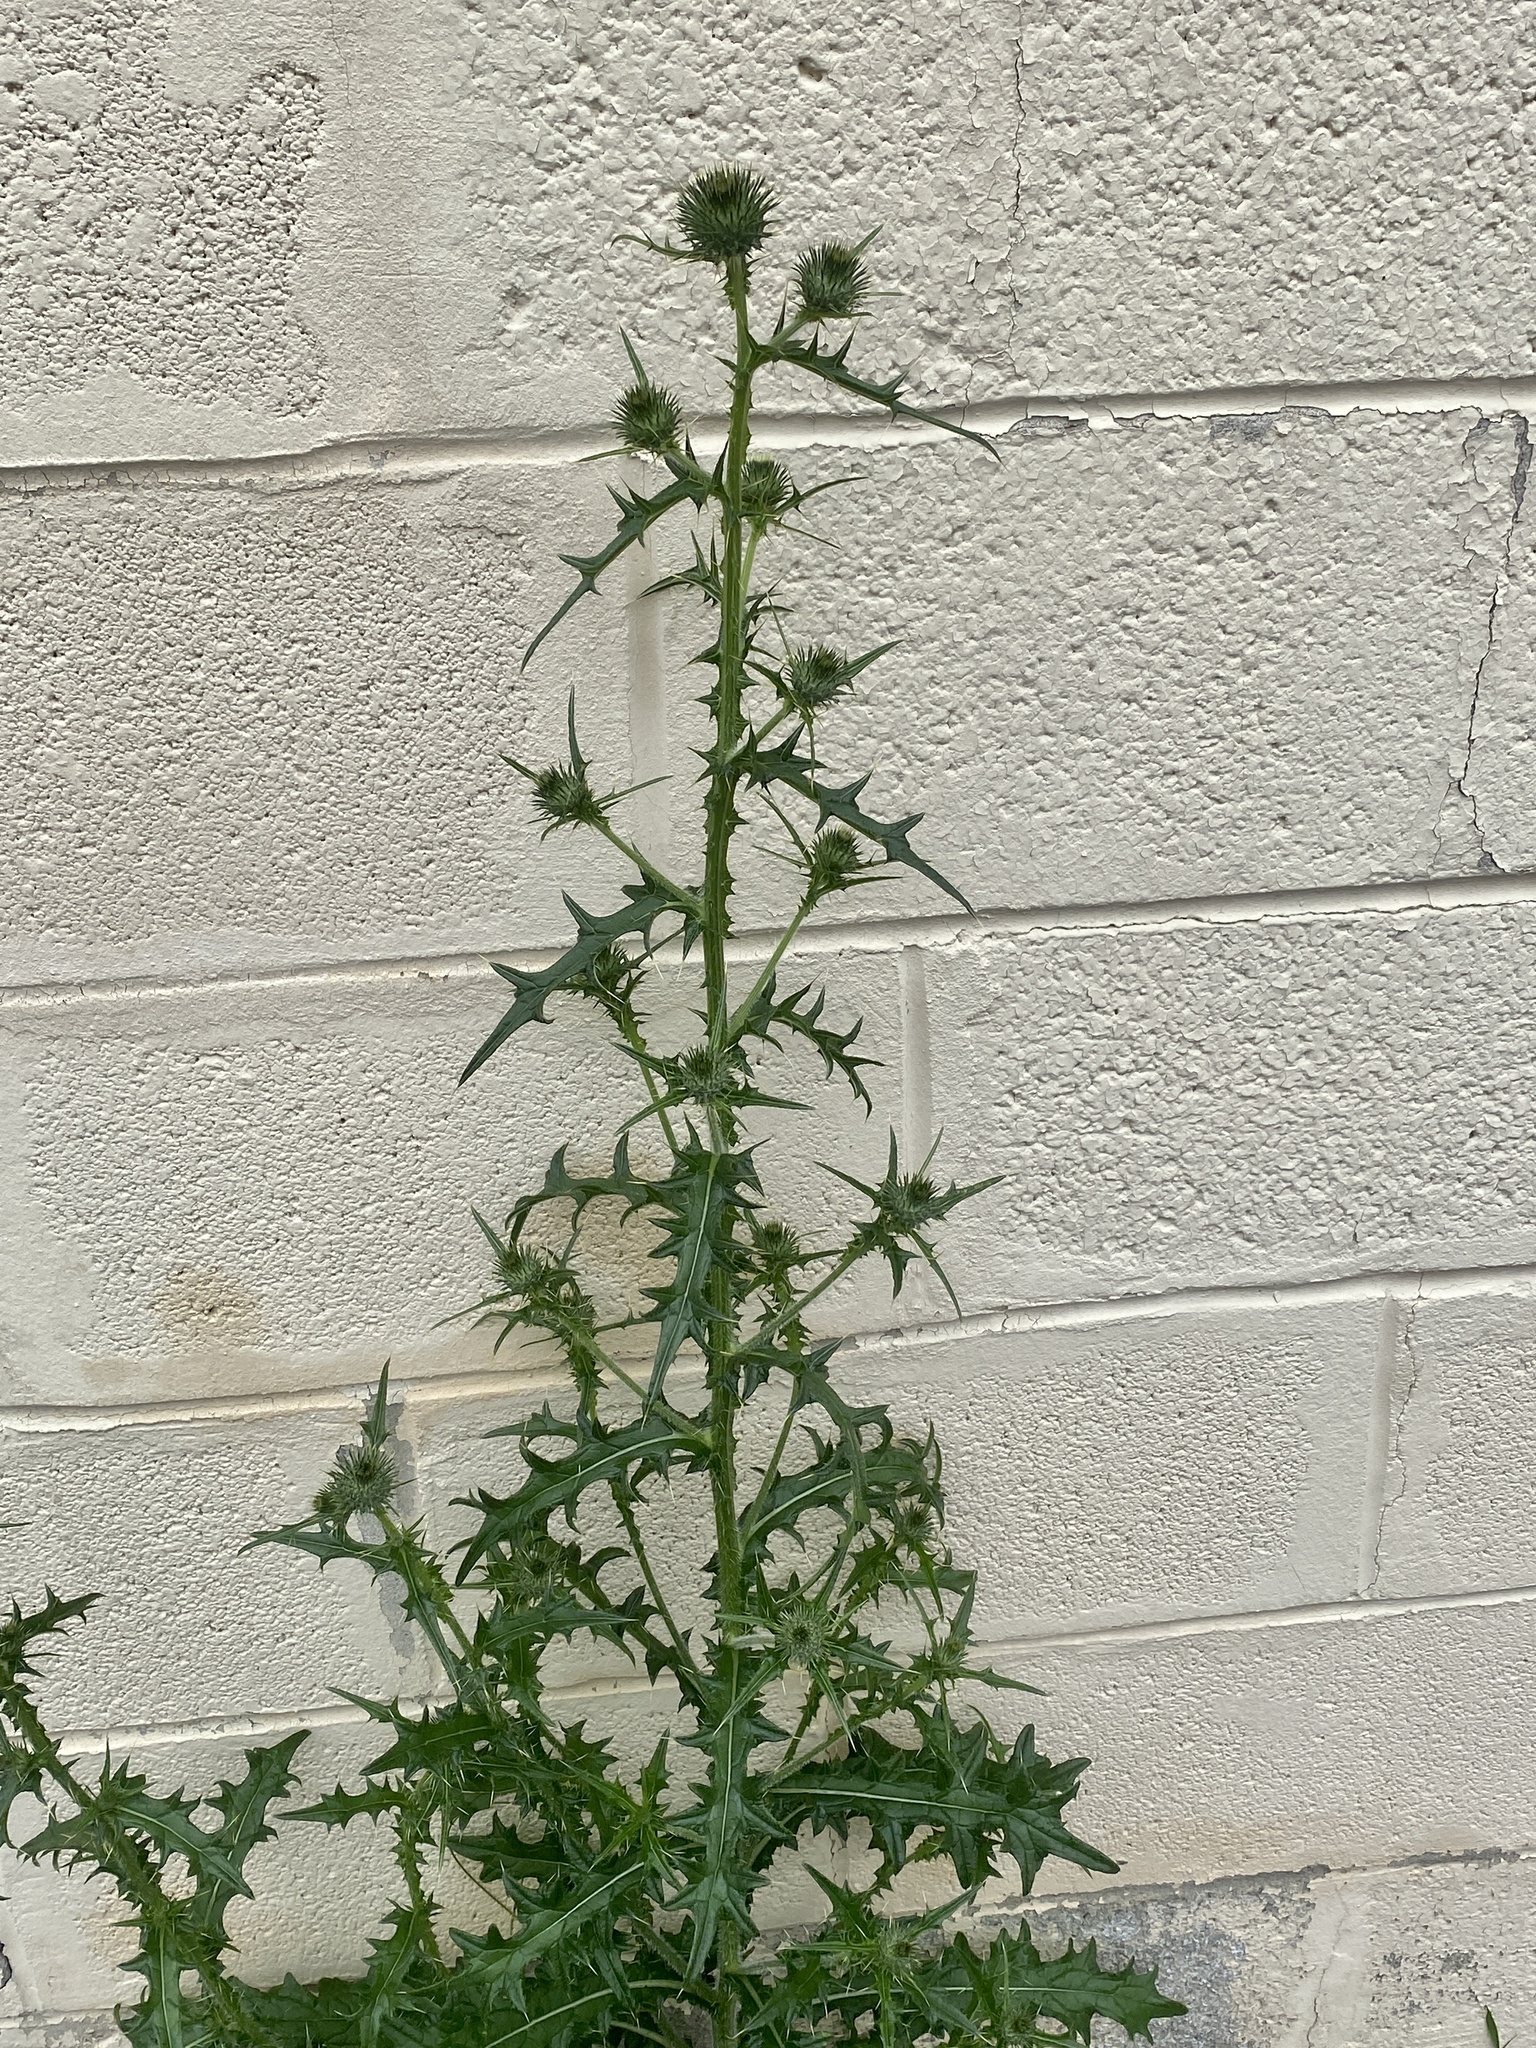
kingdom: Plantae
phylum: Tracheophyta
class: Magnoliopsida
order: Asterales
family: Asteraceae
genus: Cirsium
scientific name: Cirsium vulgare
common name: Bull thistle
